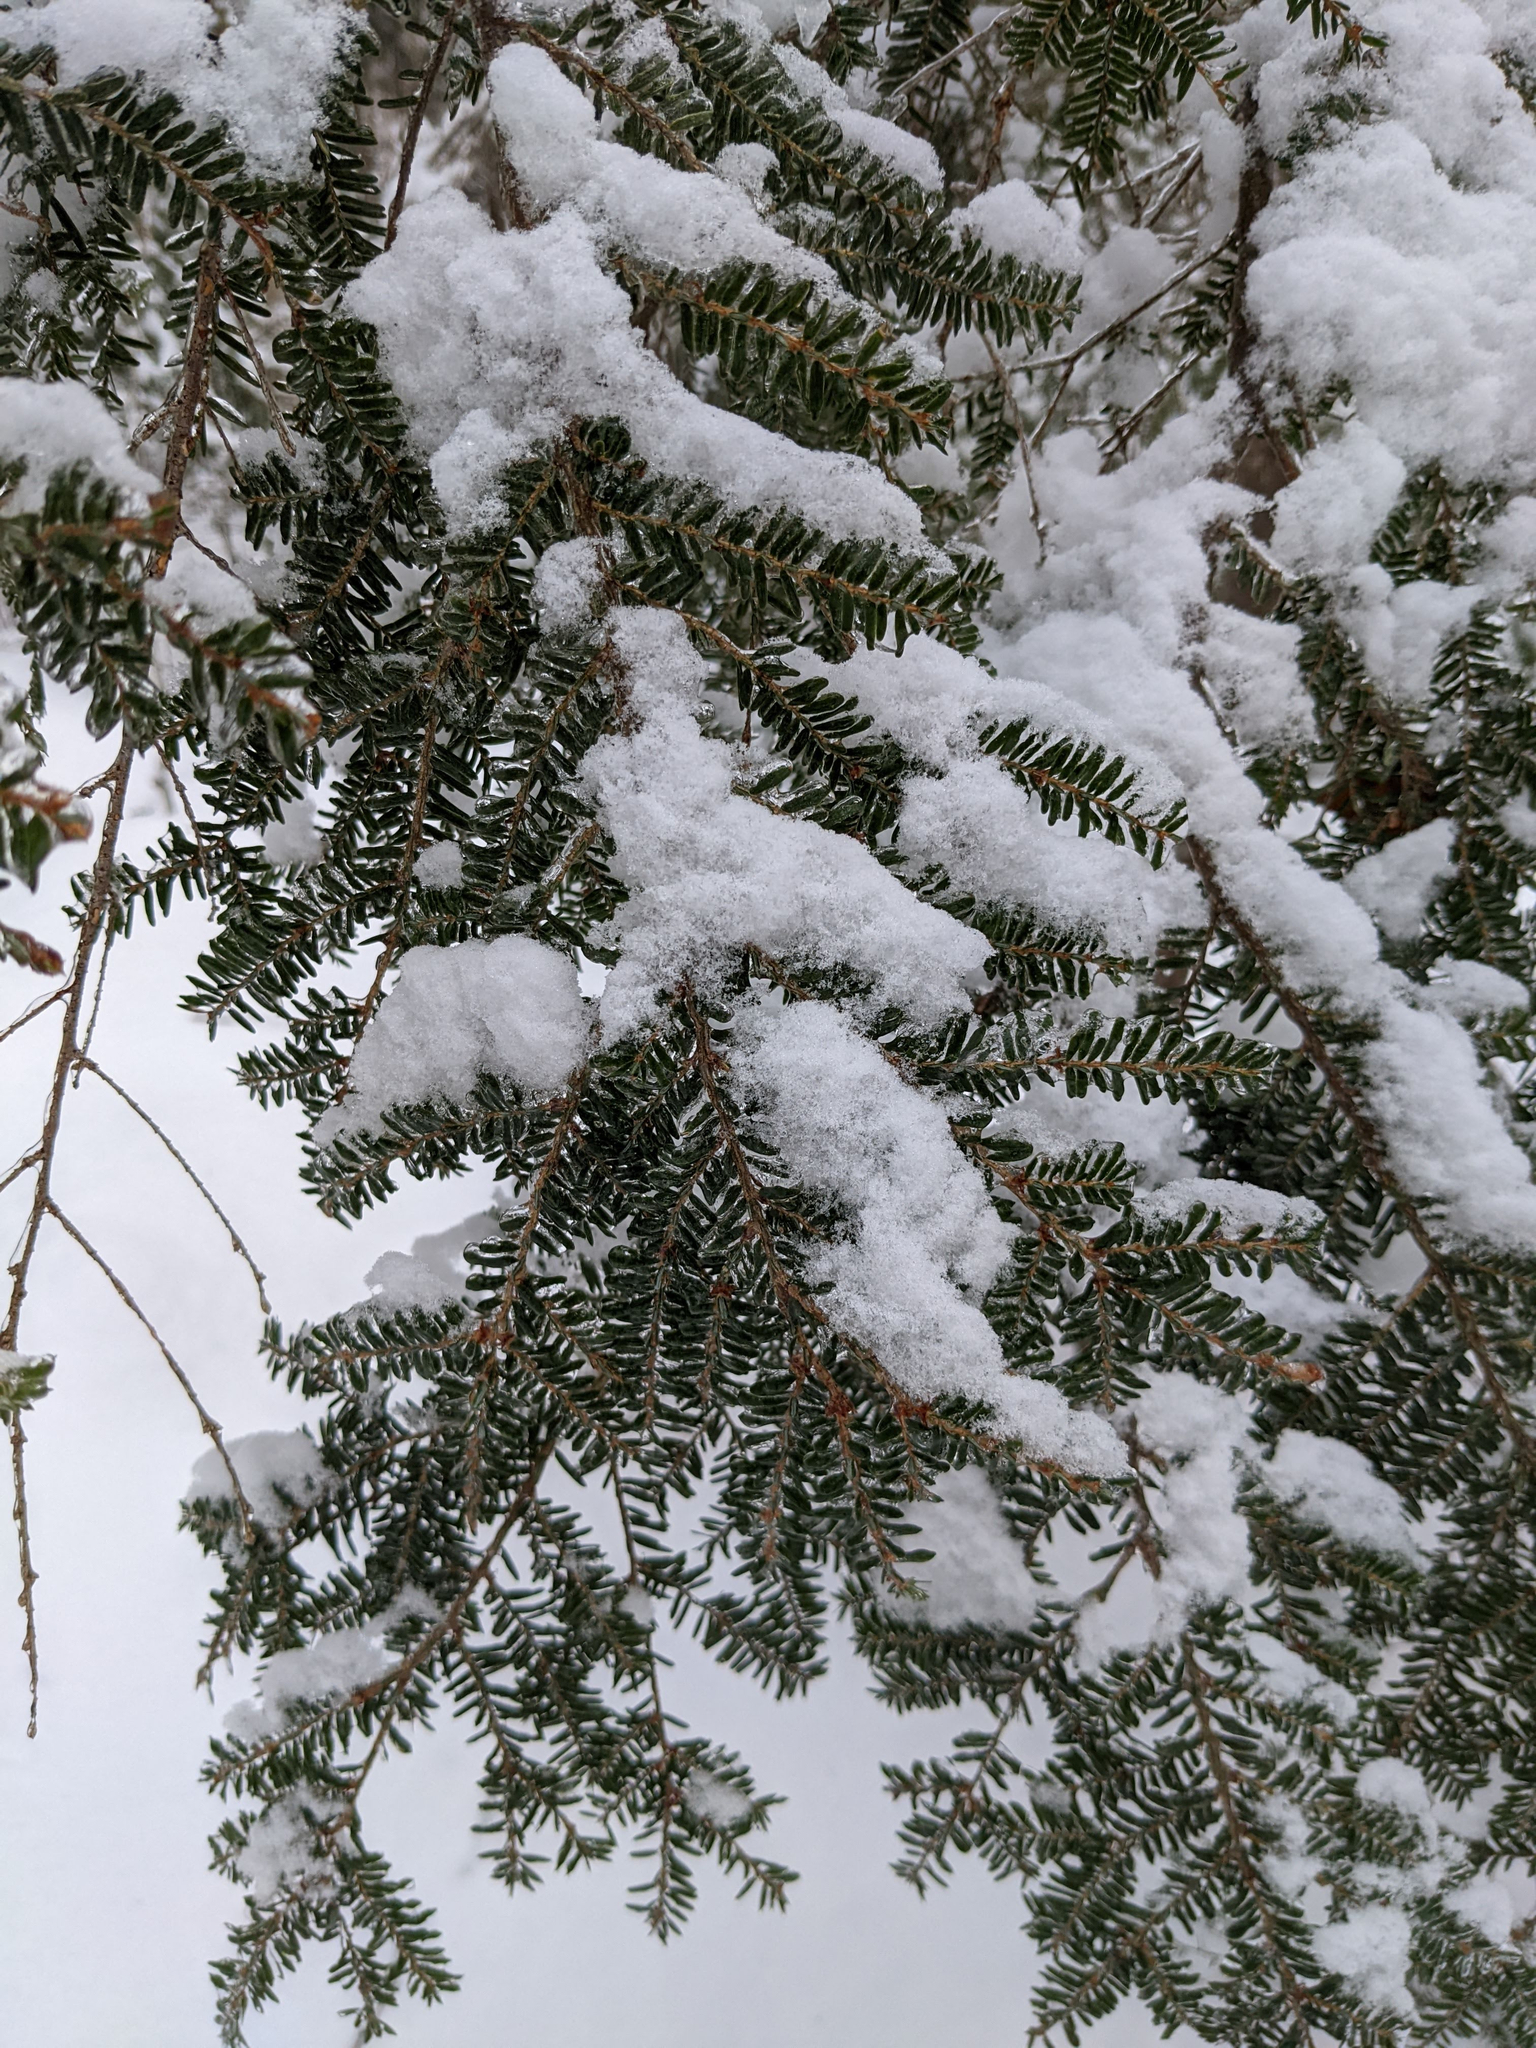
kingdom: Plantae
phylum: Tracheophyta
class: Pinopsida
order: Pinales
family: Pinaceae
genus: Tsuga
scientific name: Tsuga canadensis
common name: Eastern hemlock
